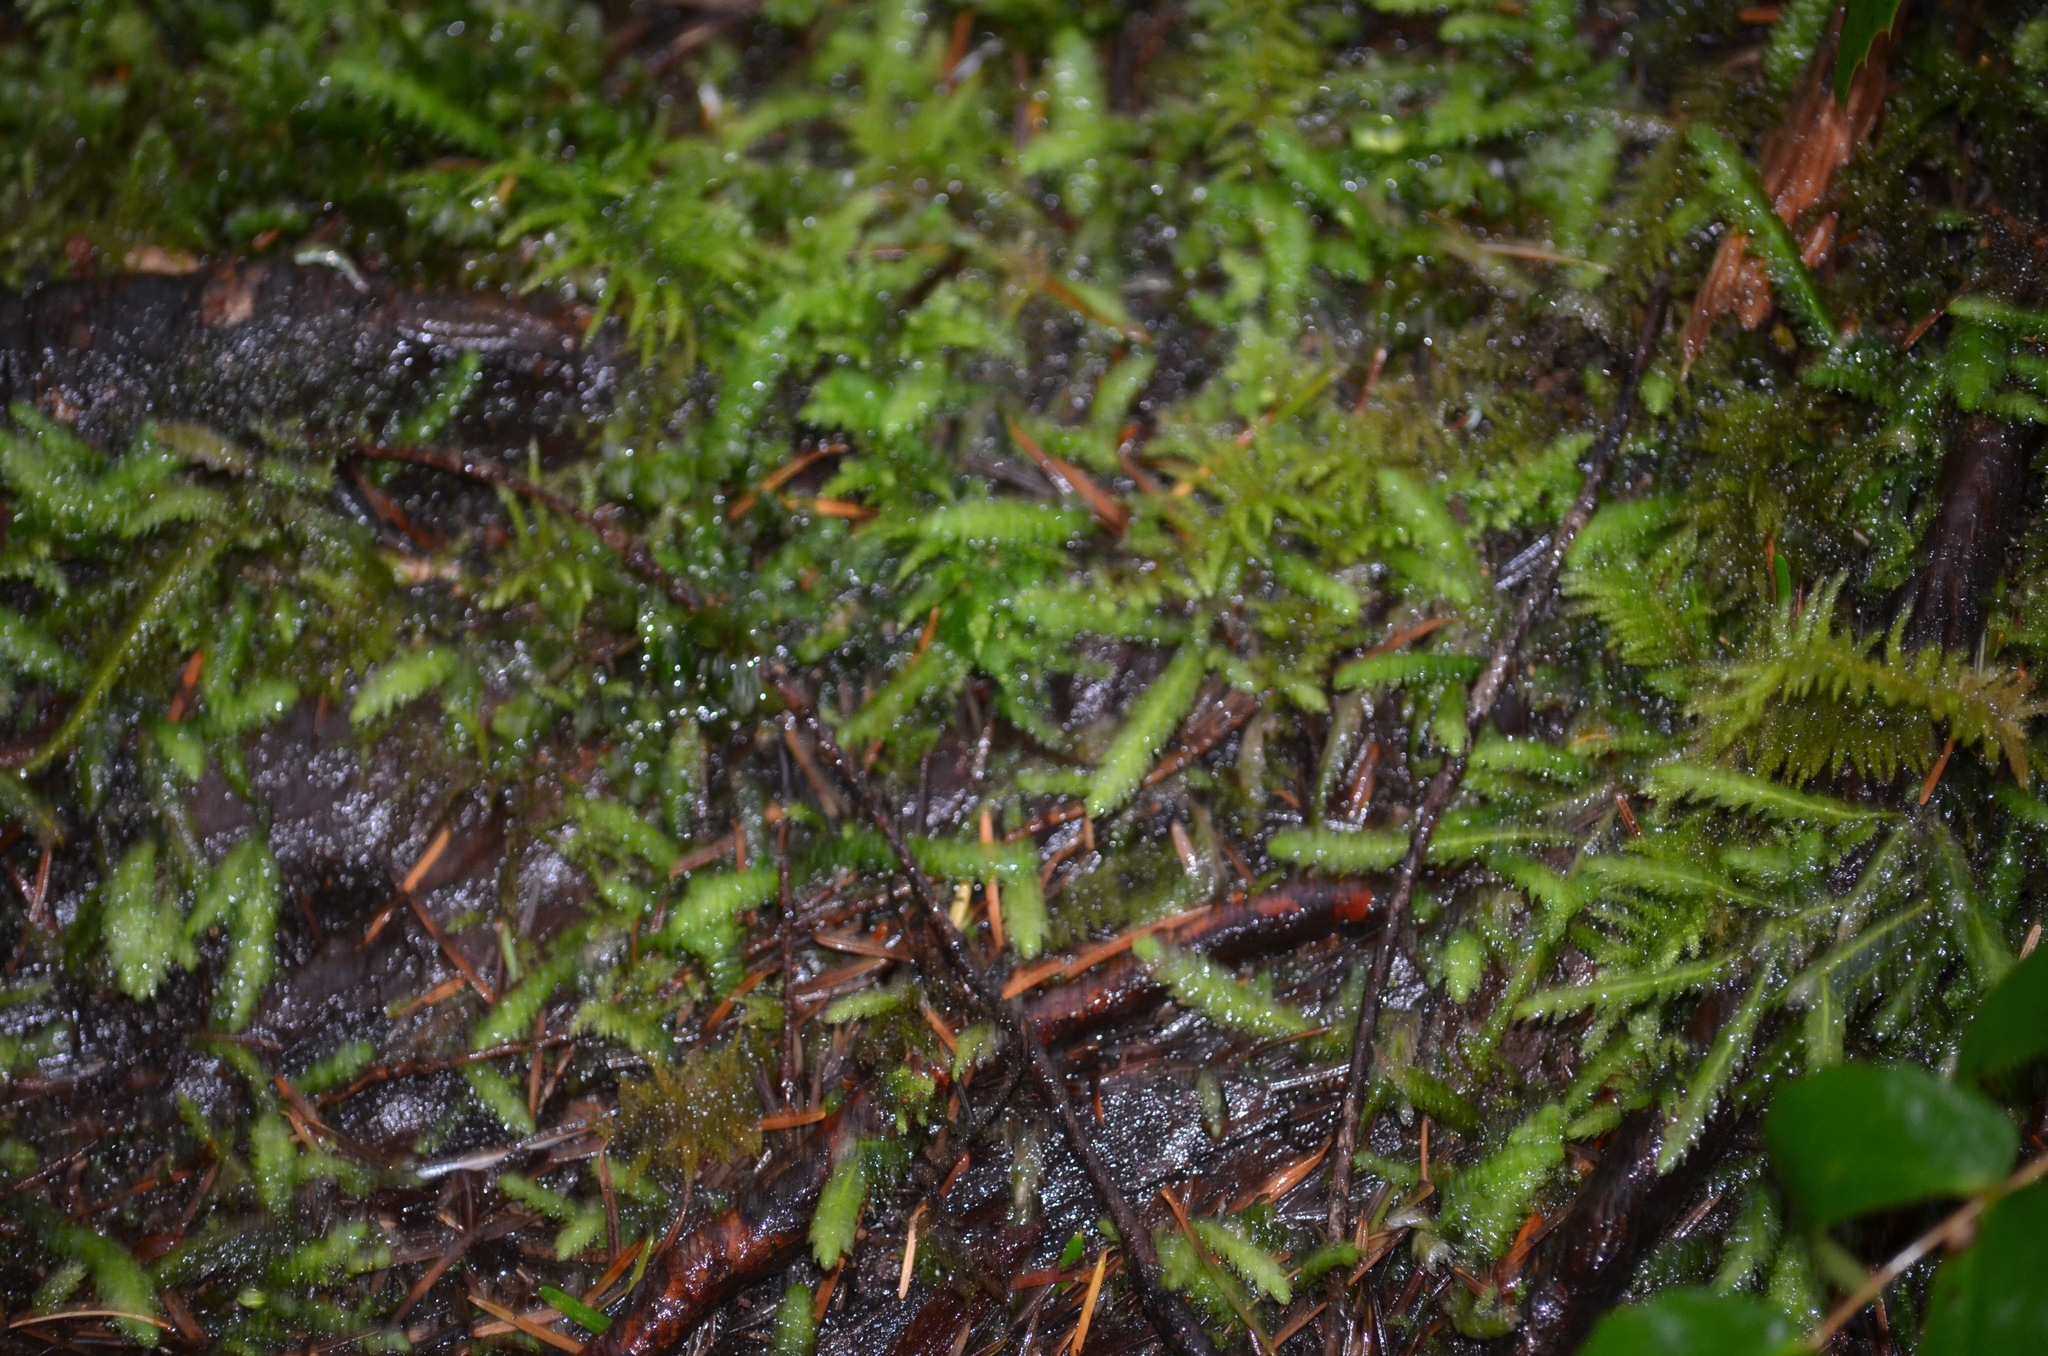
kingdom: Plantae
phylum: Bryophyta
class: Bryopsida
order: Hypnales
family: Plagiotheciaceae
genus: Plagiothecium
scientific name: Plagiothecium undulatum
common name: Waved silk-moss
